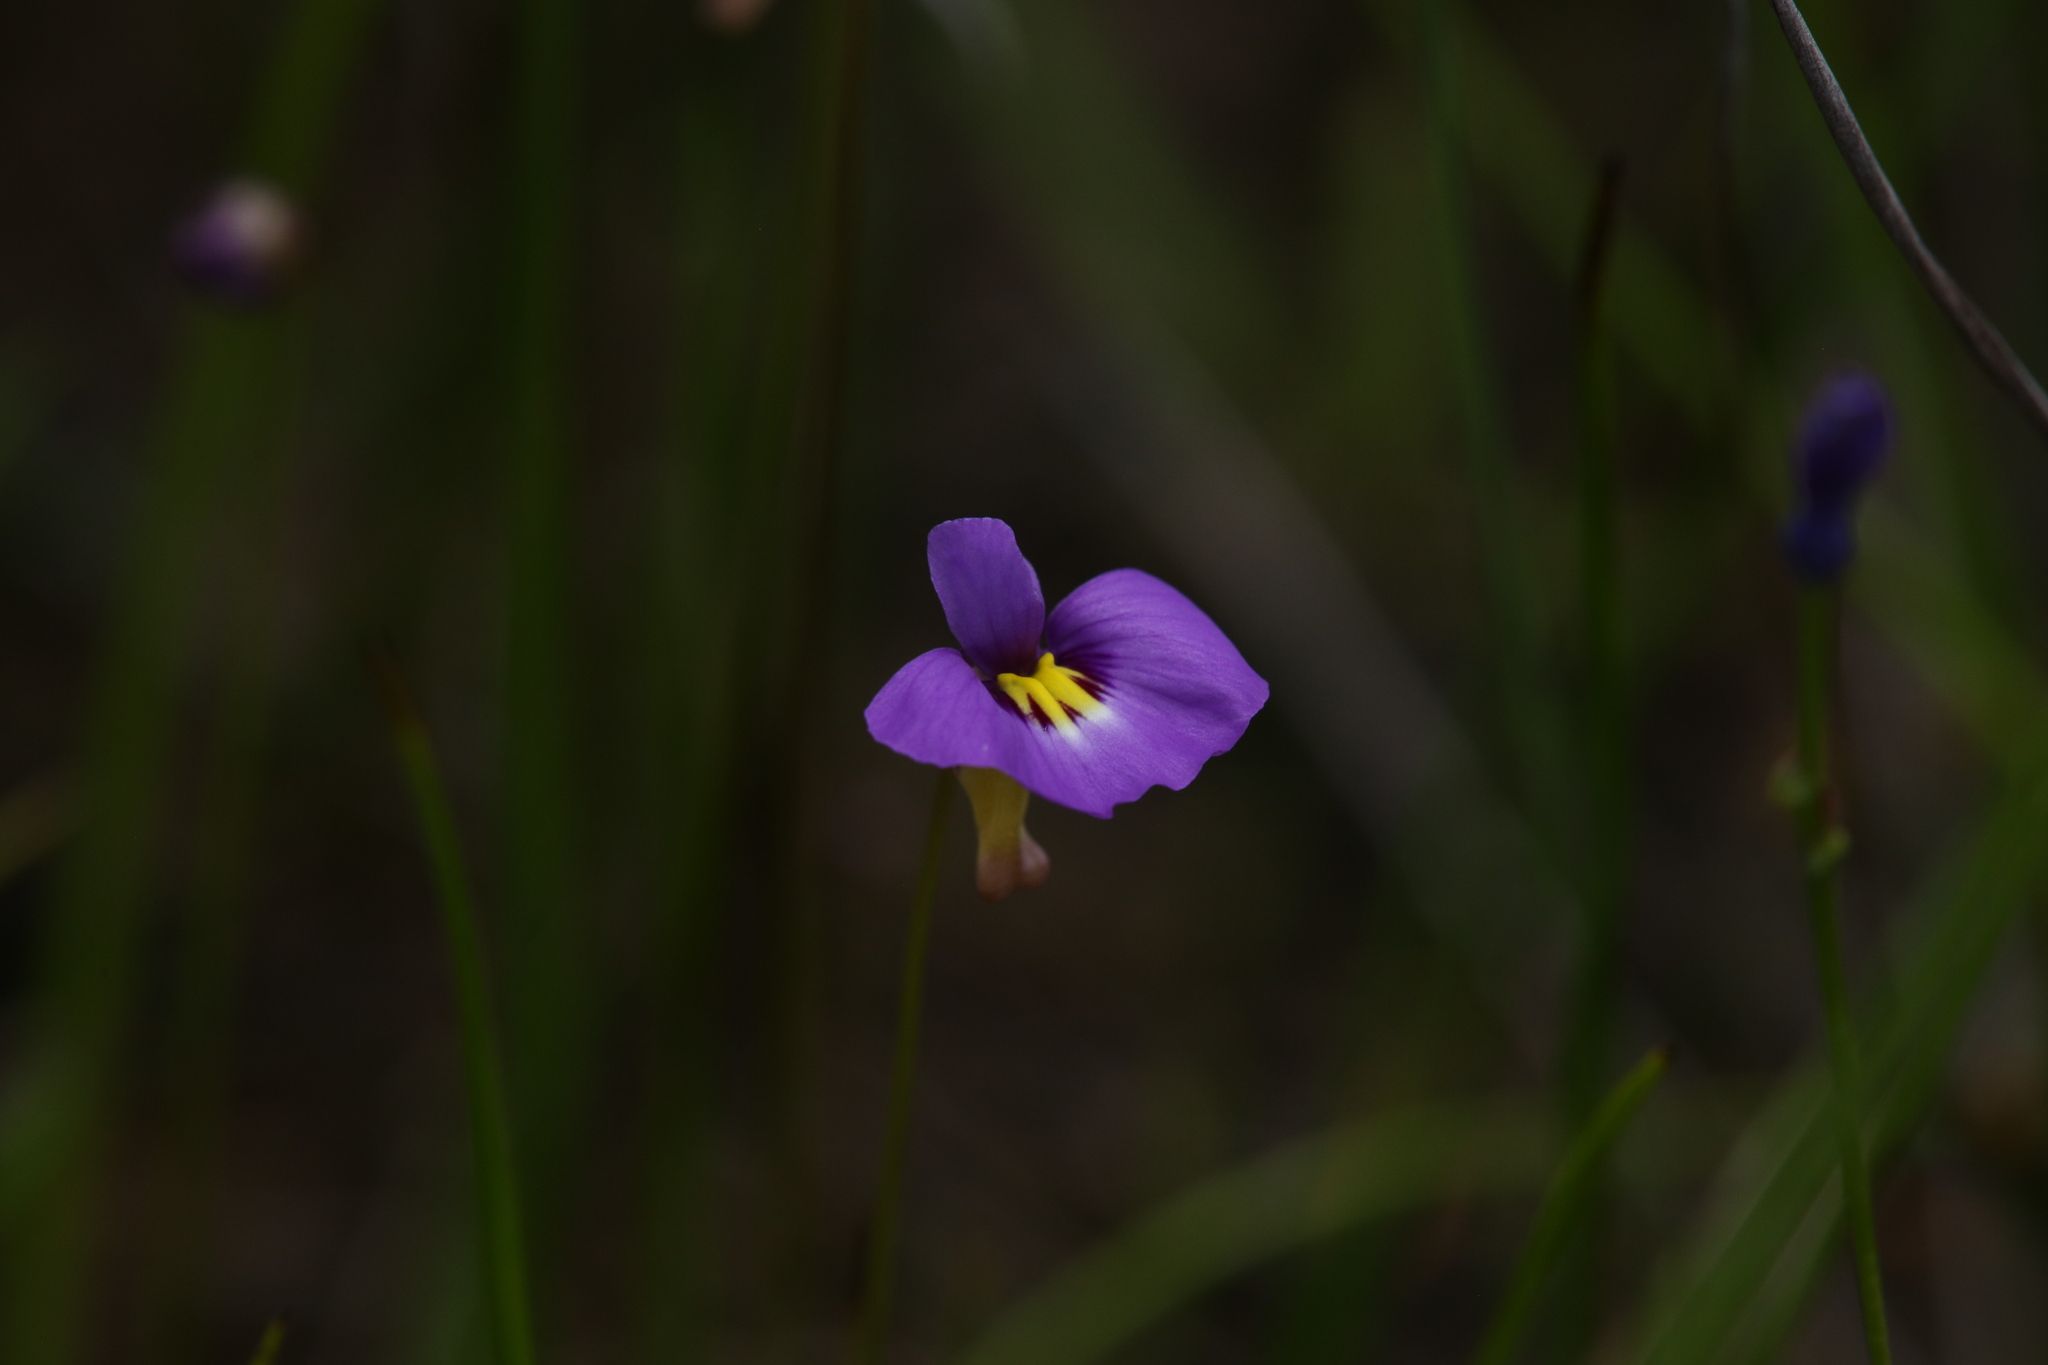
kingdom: Plantae
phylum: Tracheophyta
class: Magnoliopsida
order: Lamiales
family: Lentibulariaceae
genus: Utricularia
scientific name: Utricularia petertaylorii
